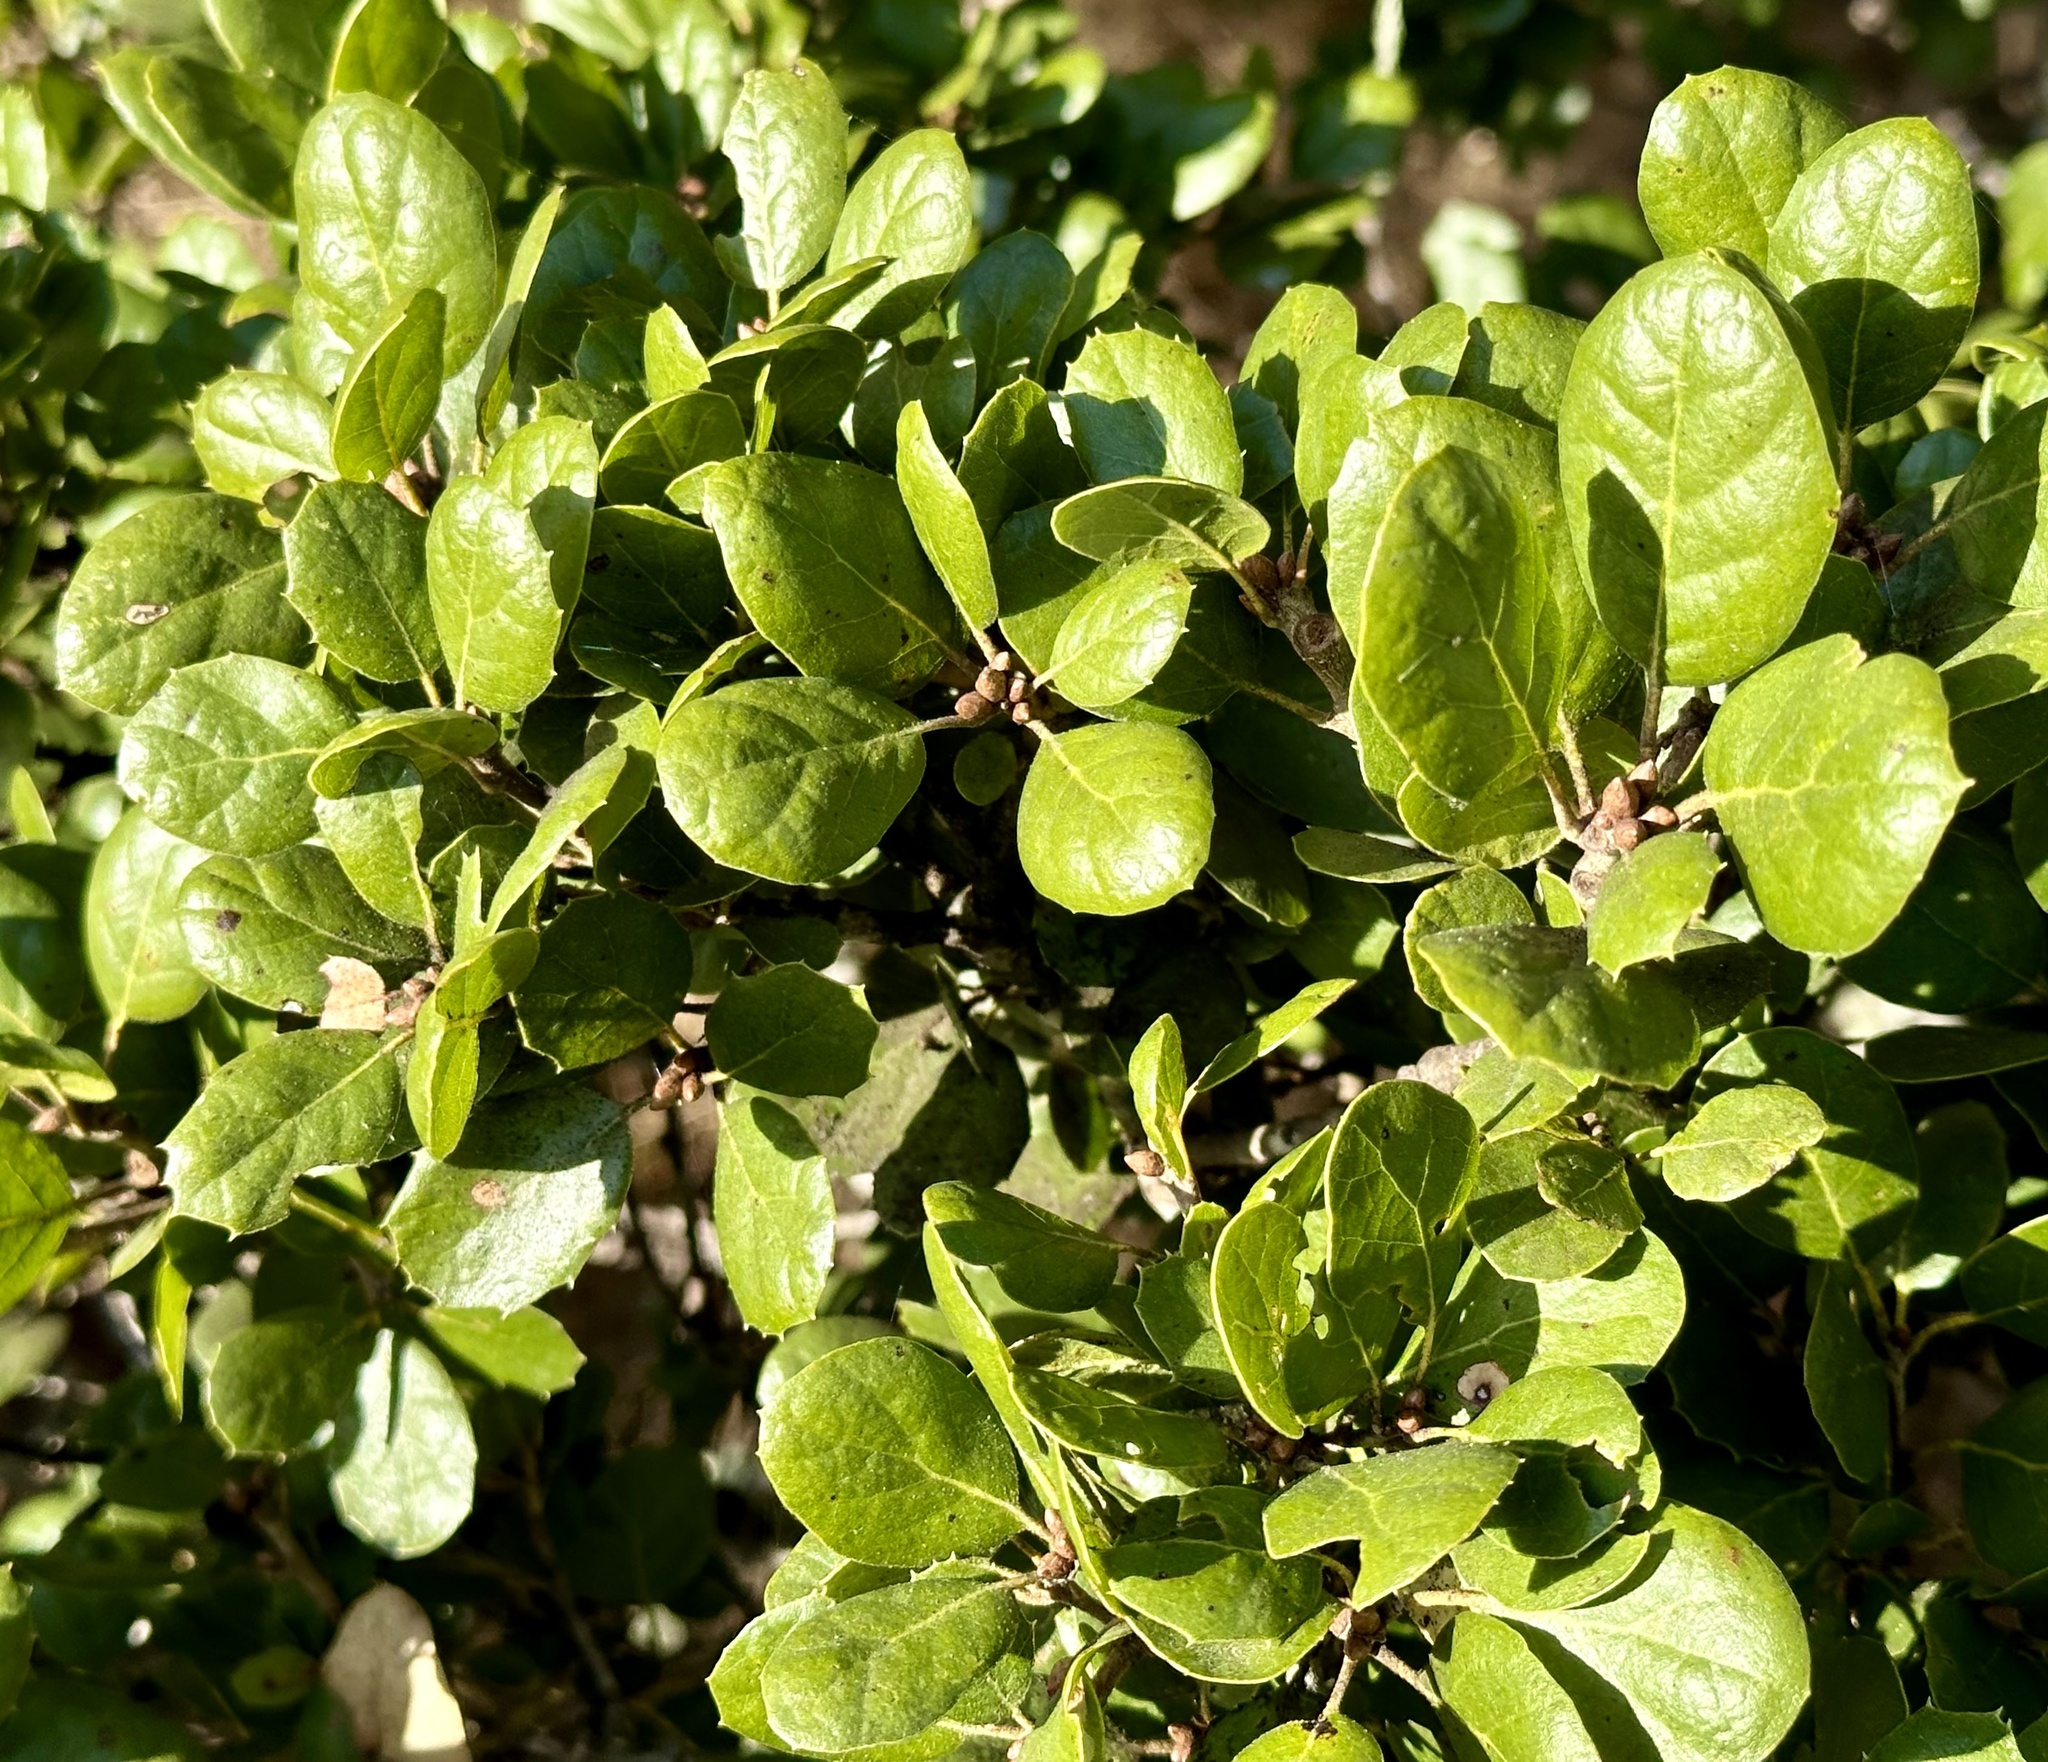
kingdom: Plantae
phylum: Tracheophyta
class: Magnoliopsida
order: Fagales
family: Fagaceae
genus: Quercus
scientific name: Quercus agrifolia
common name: California live oak
